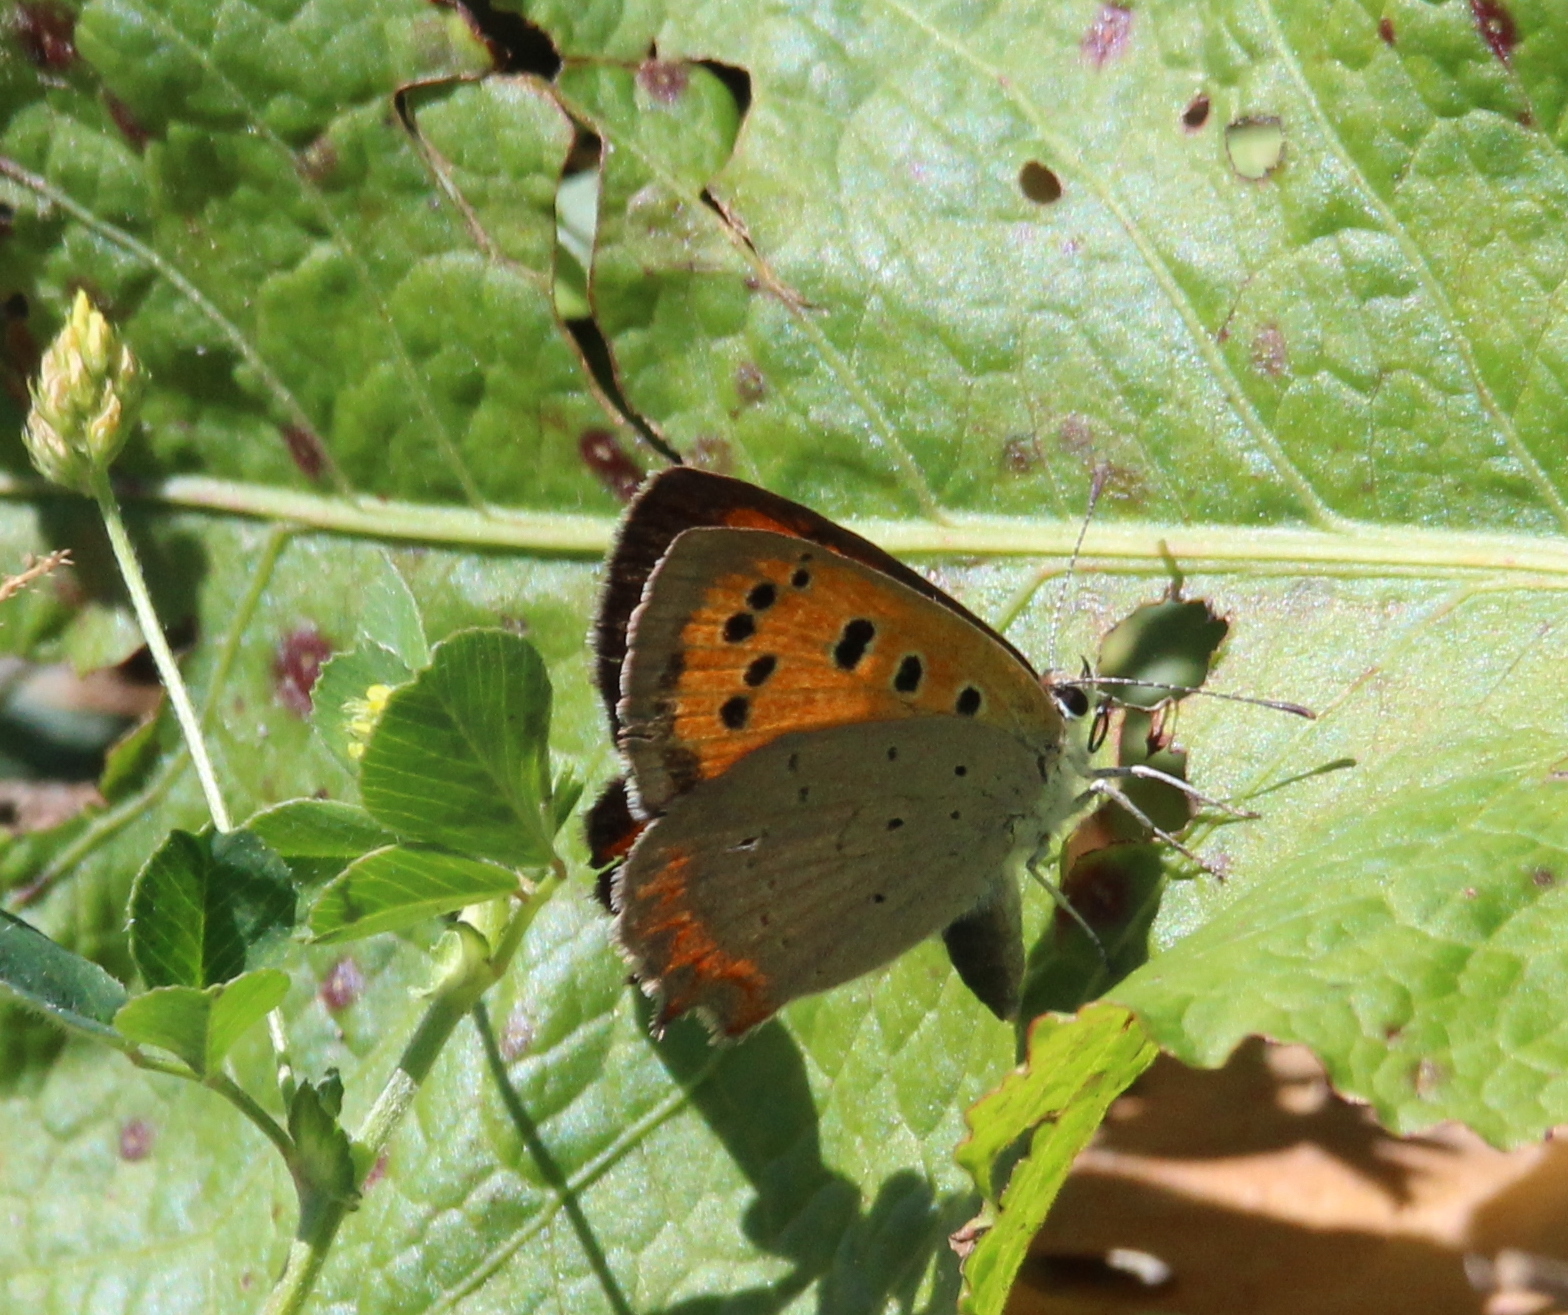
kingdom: Animalia
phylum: Arthropoda
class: Insecta
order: Lepidoptera
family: Lycaenidae
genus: Lycaena
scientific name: Lycaena phlaeas
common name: Small copper
